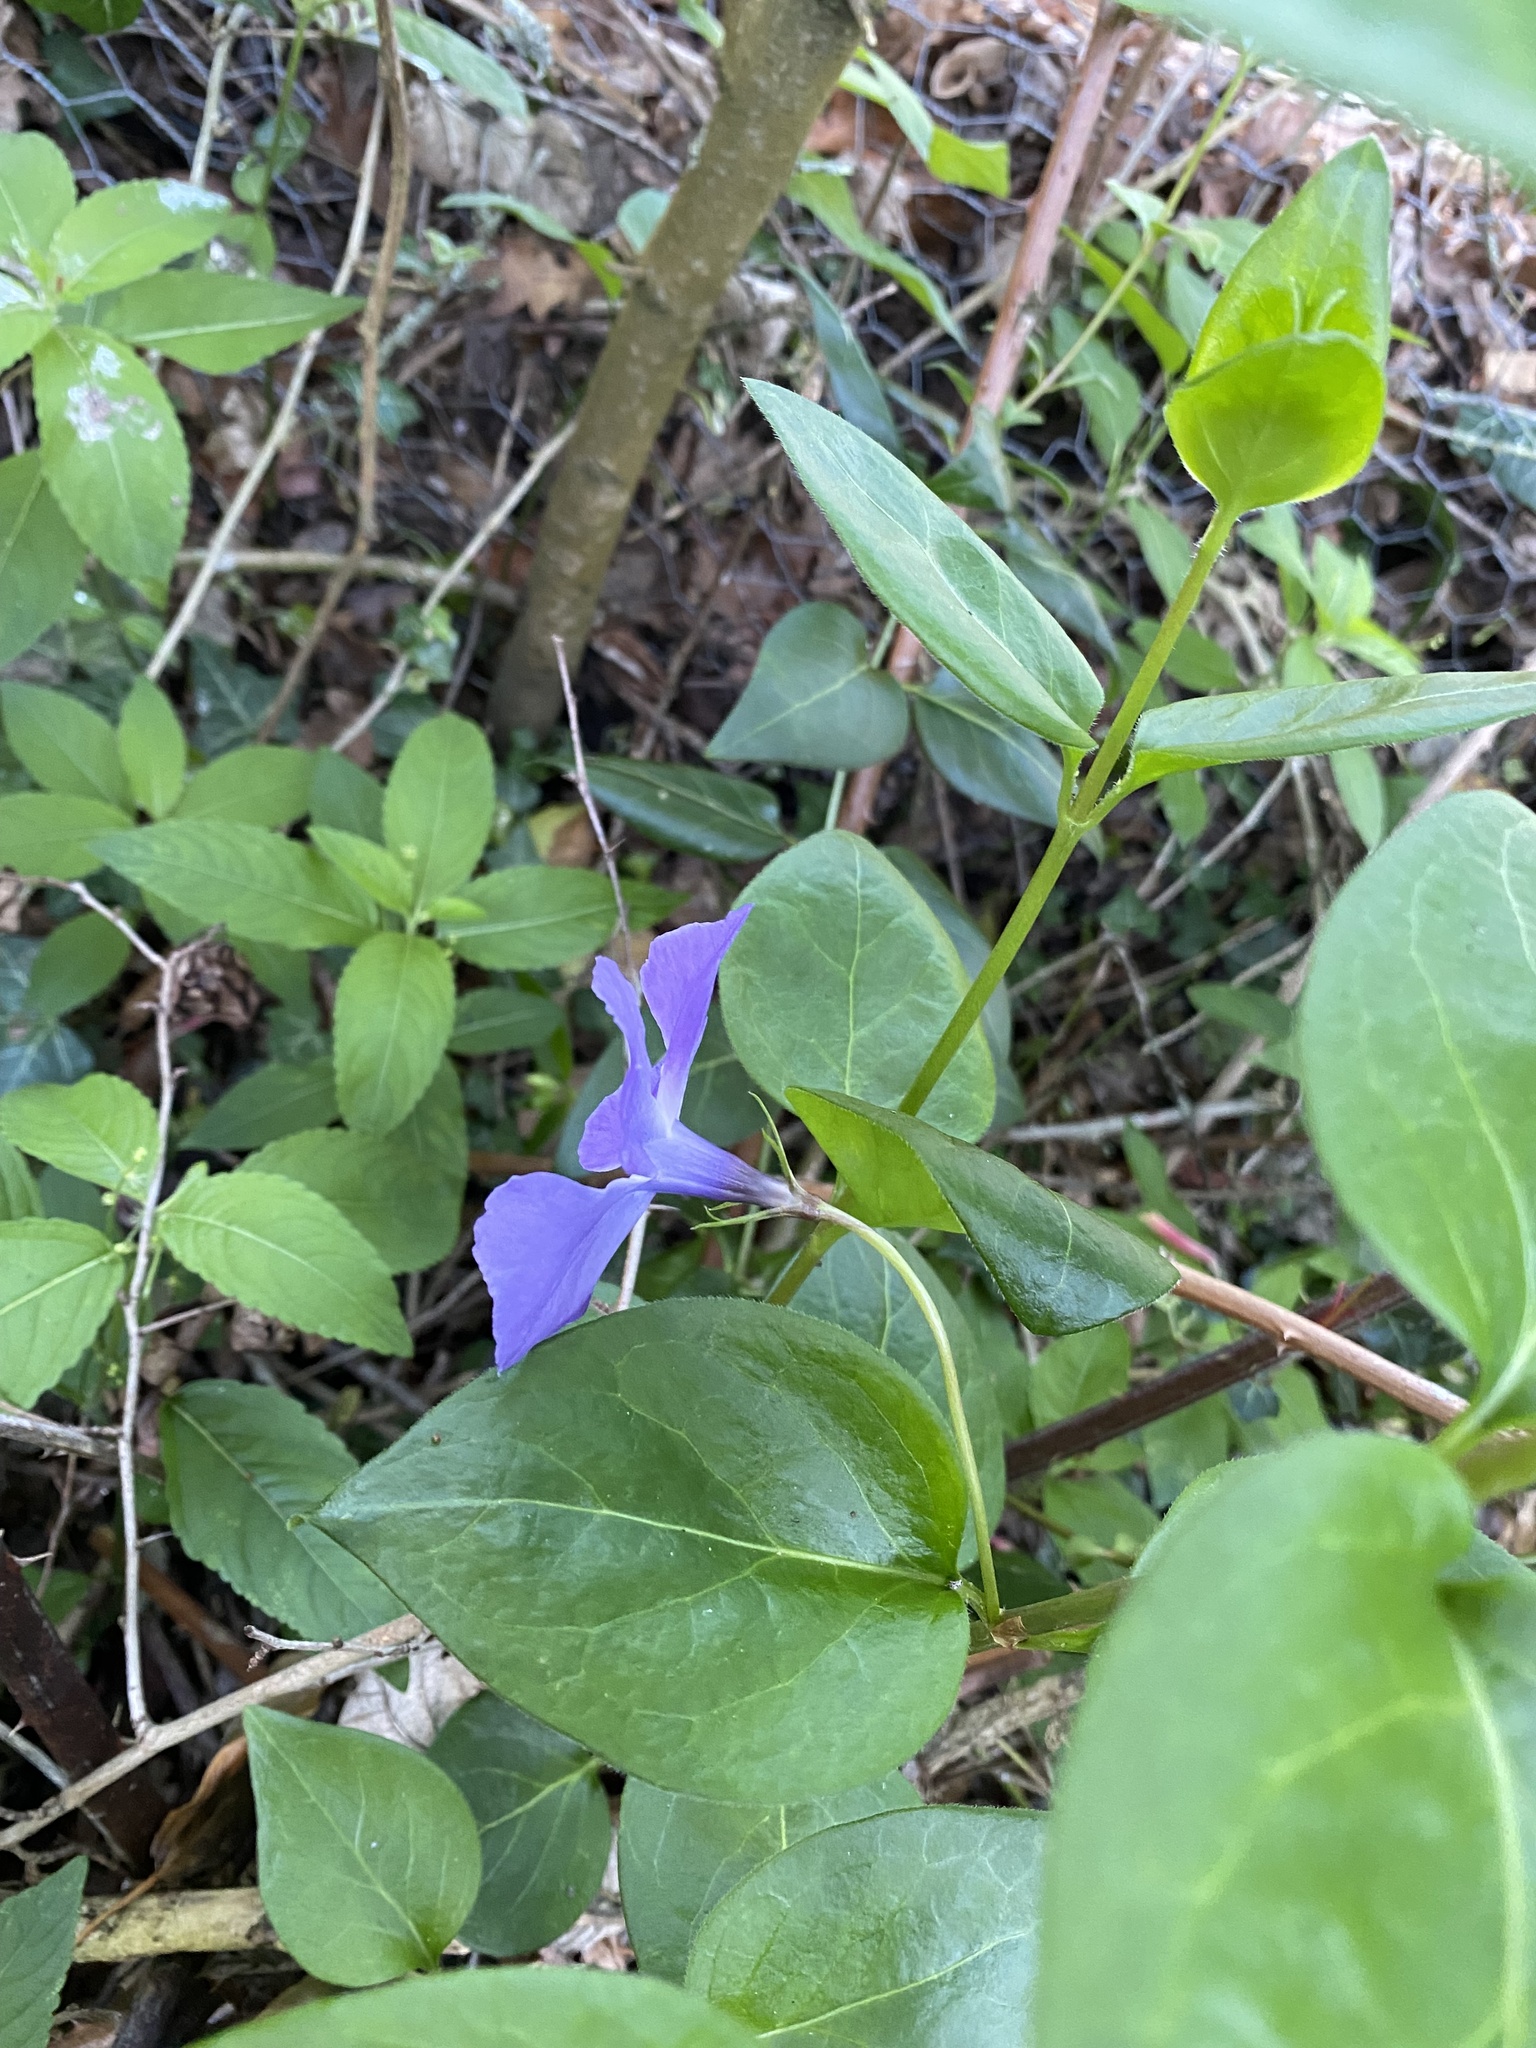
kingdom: Plantae
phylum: Tracheophyta
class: Magnoliopsida
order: Gentianales
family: Apocynaceae
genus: Vinca
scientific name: Vinca major
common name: Greater periwinkle
